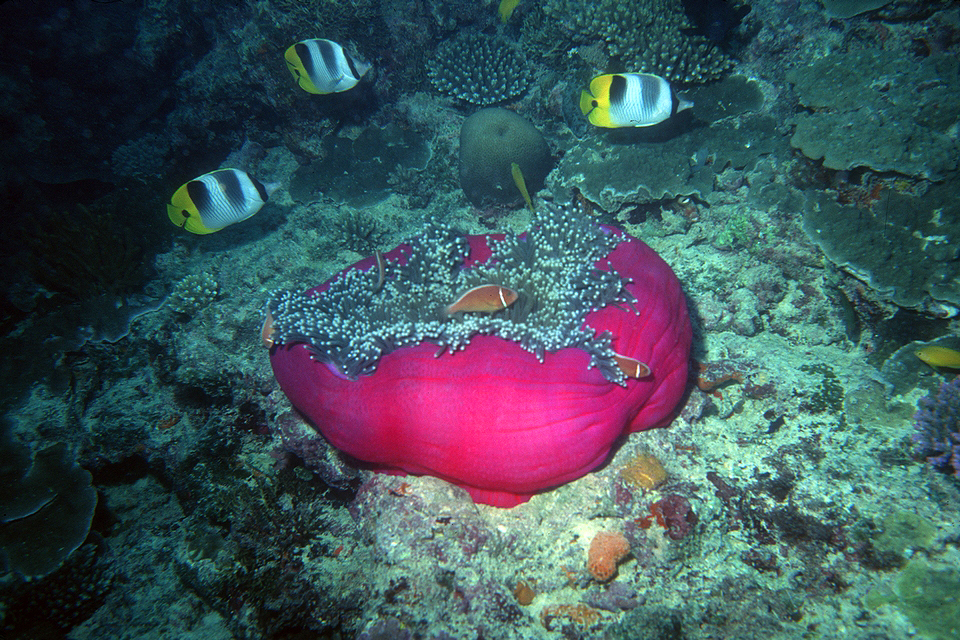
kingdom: Animalia
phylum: Chordata
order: Perciformes
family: Chaetodontidae
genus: Chaetodon
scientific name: Chaetodon ulietensis
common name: Pacific double-saddle butterflyfish
